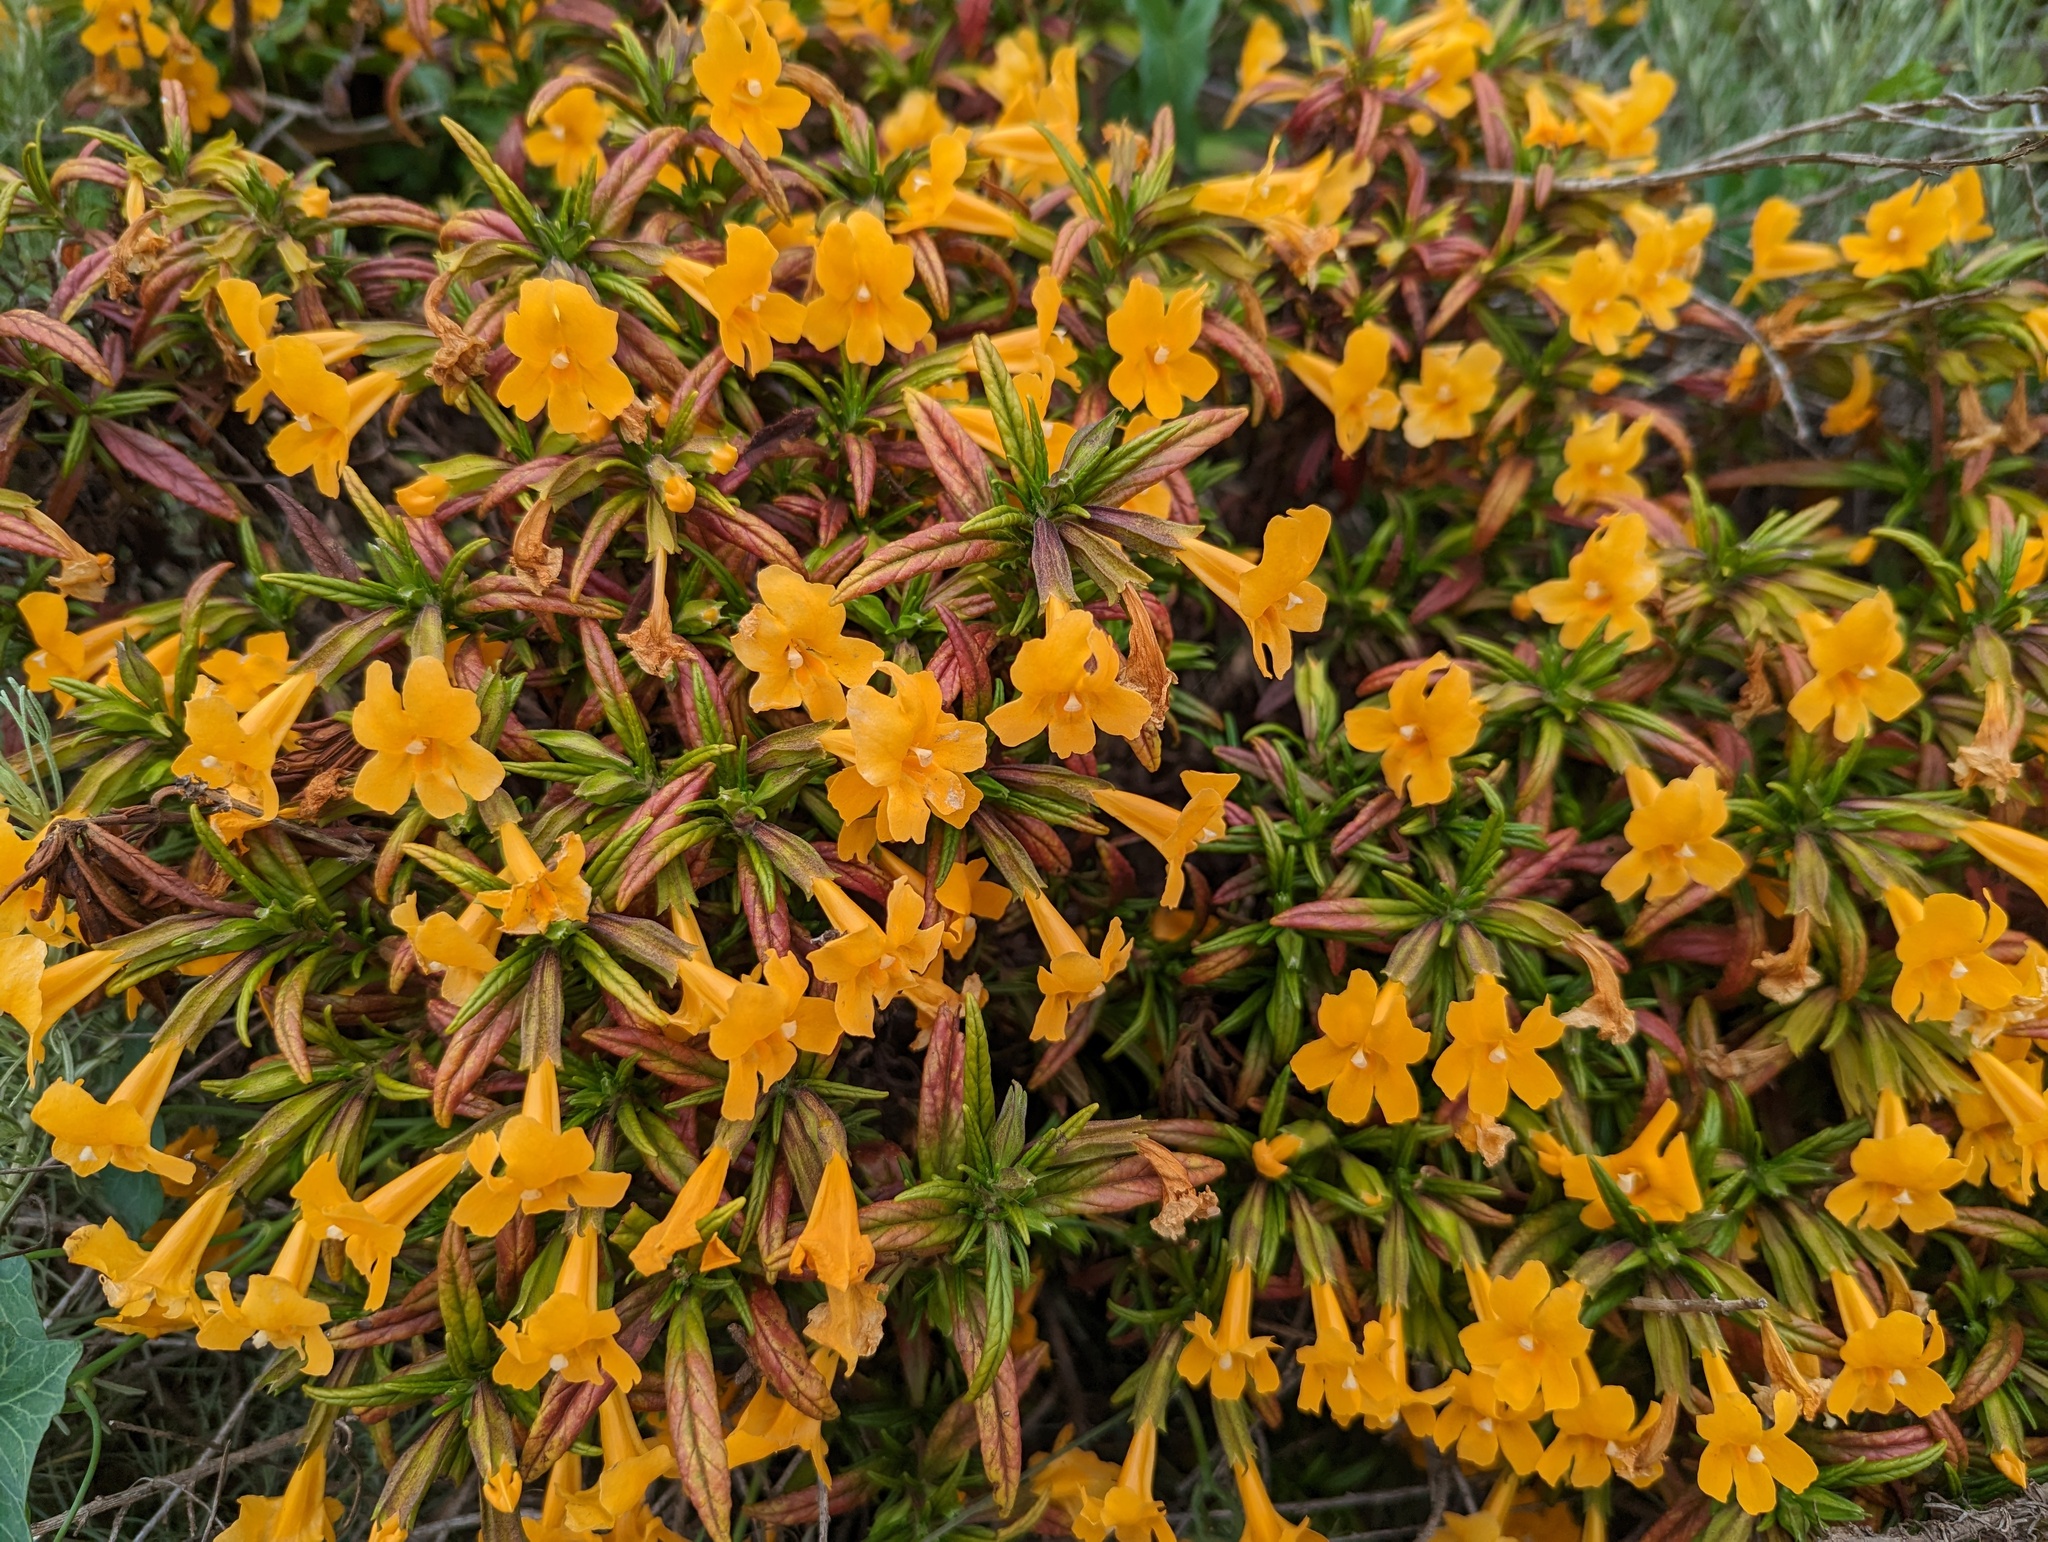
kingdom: Plantae
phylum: Tracheophyta
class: Magnoliopsida
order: Lamiales
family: Phrymaceae
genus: Diplacus
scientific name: Diplacus aurantiacus
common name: Bush monkey-flower
